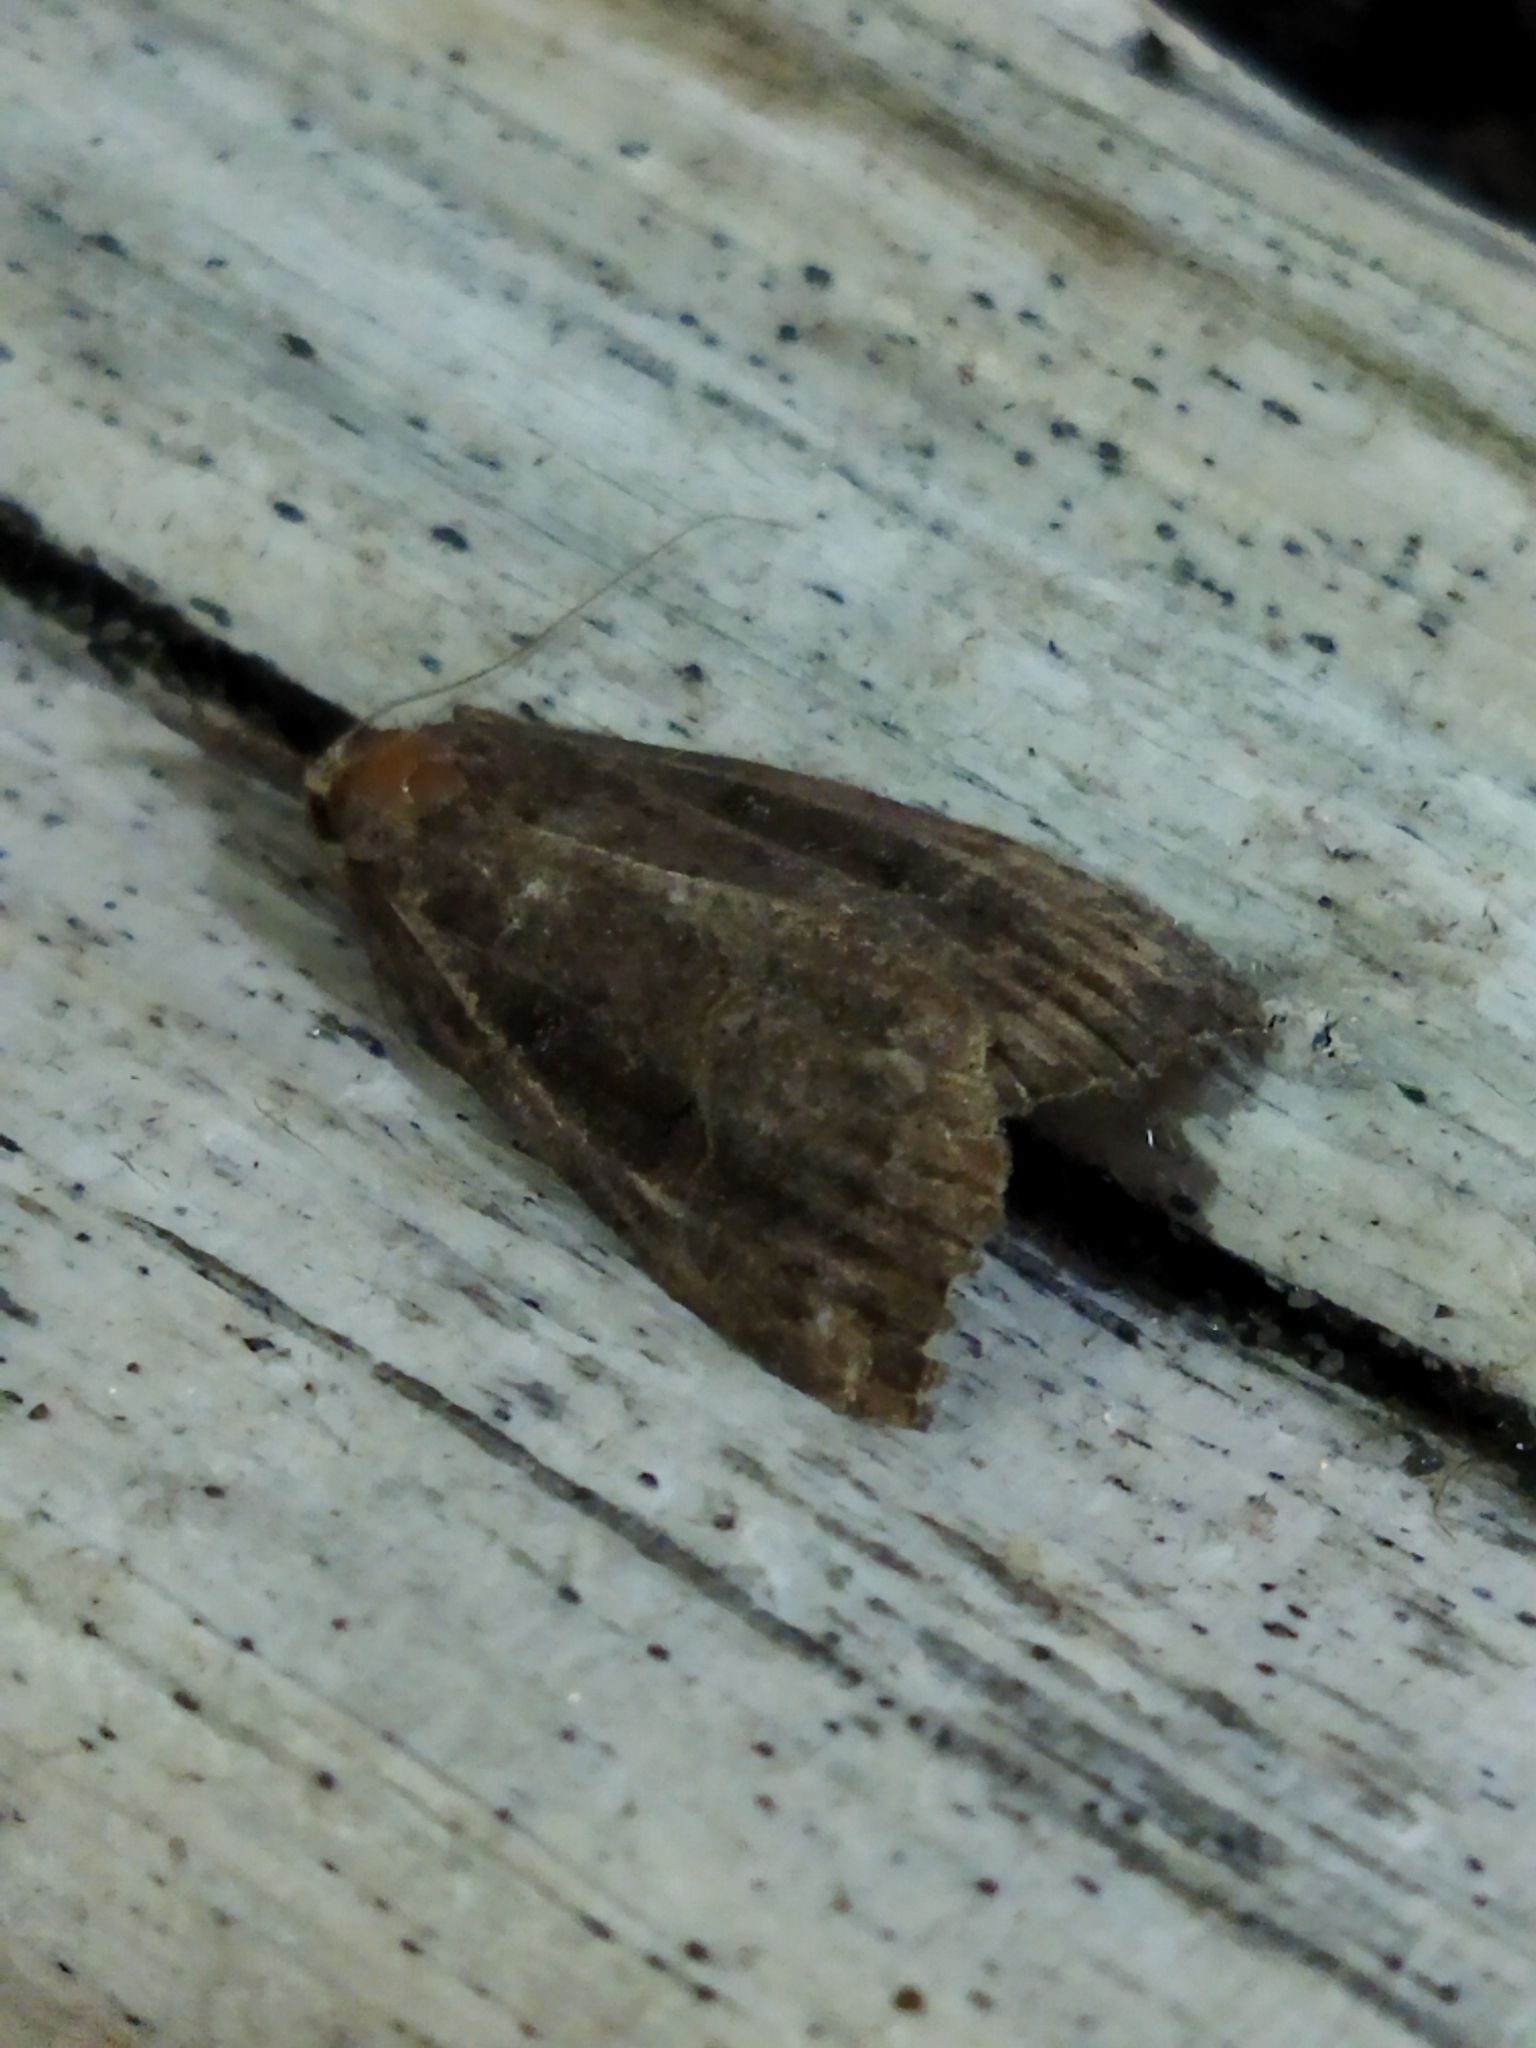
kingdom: Animalia
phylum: Arthropoda
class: Insecta
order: Lepidoptera
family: Erebidae
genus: Hypena
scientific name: Hypena rostralis
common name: Buttoned snout
